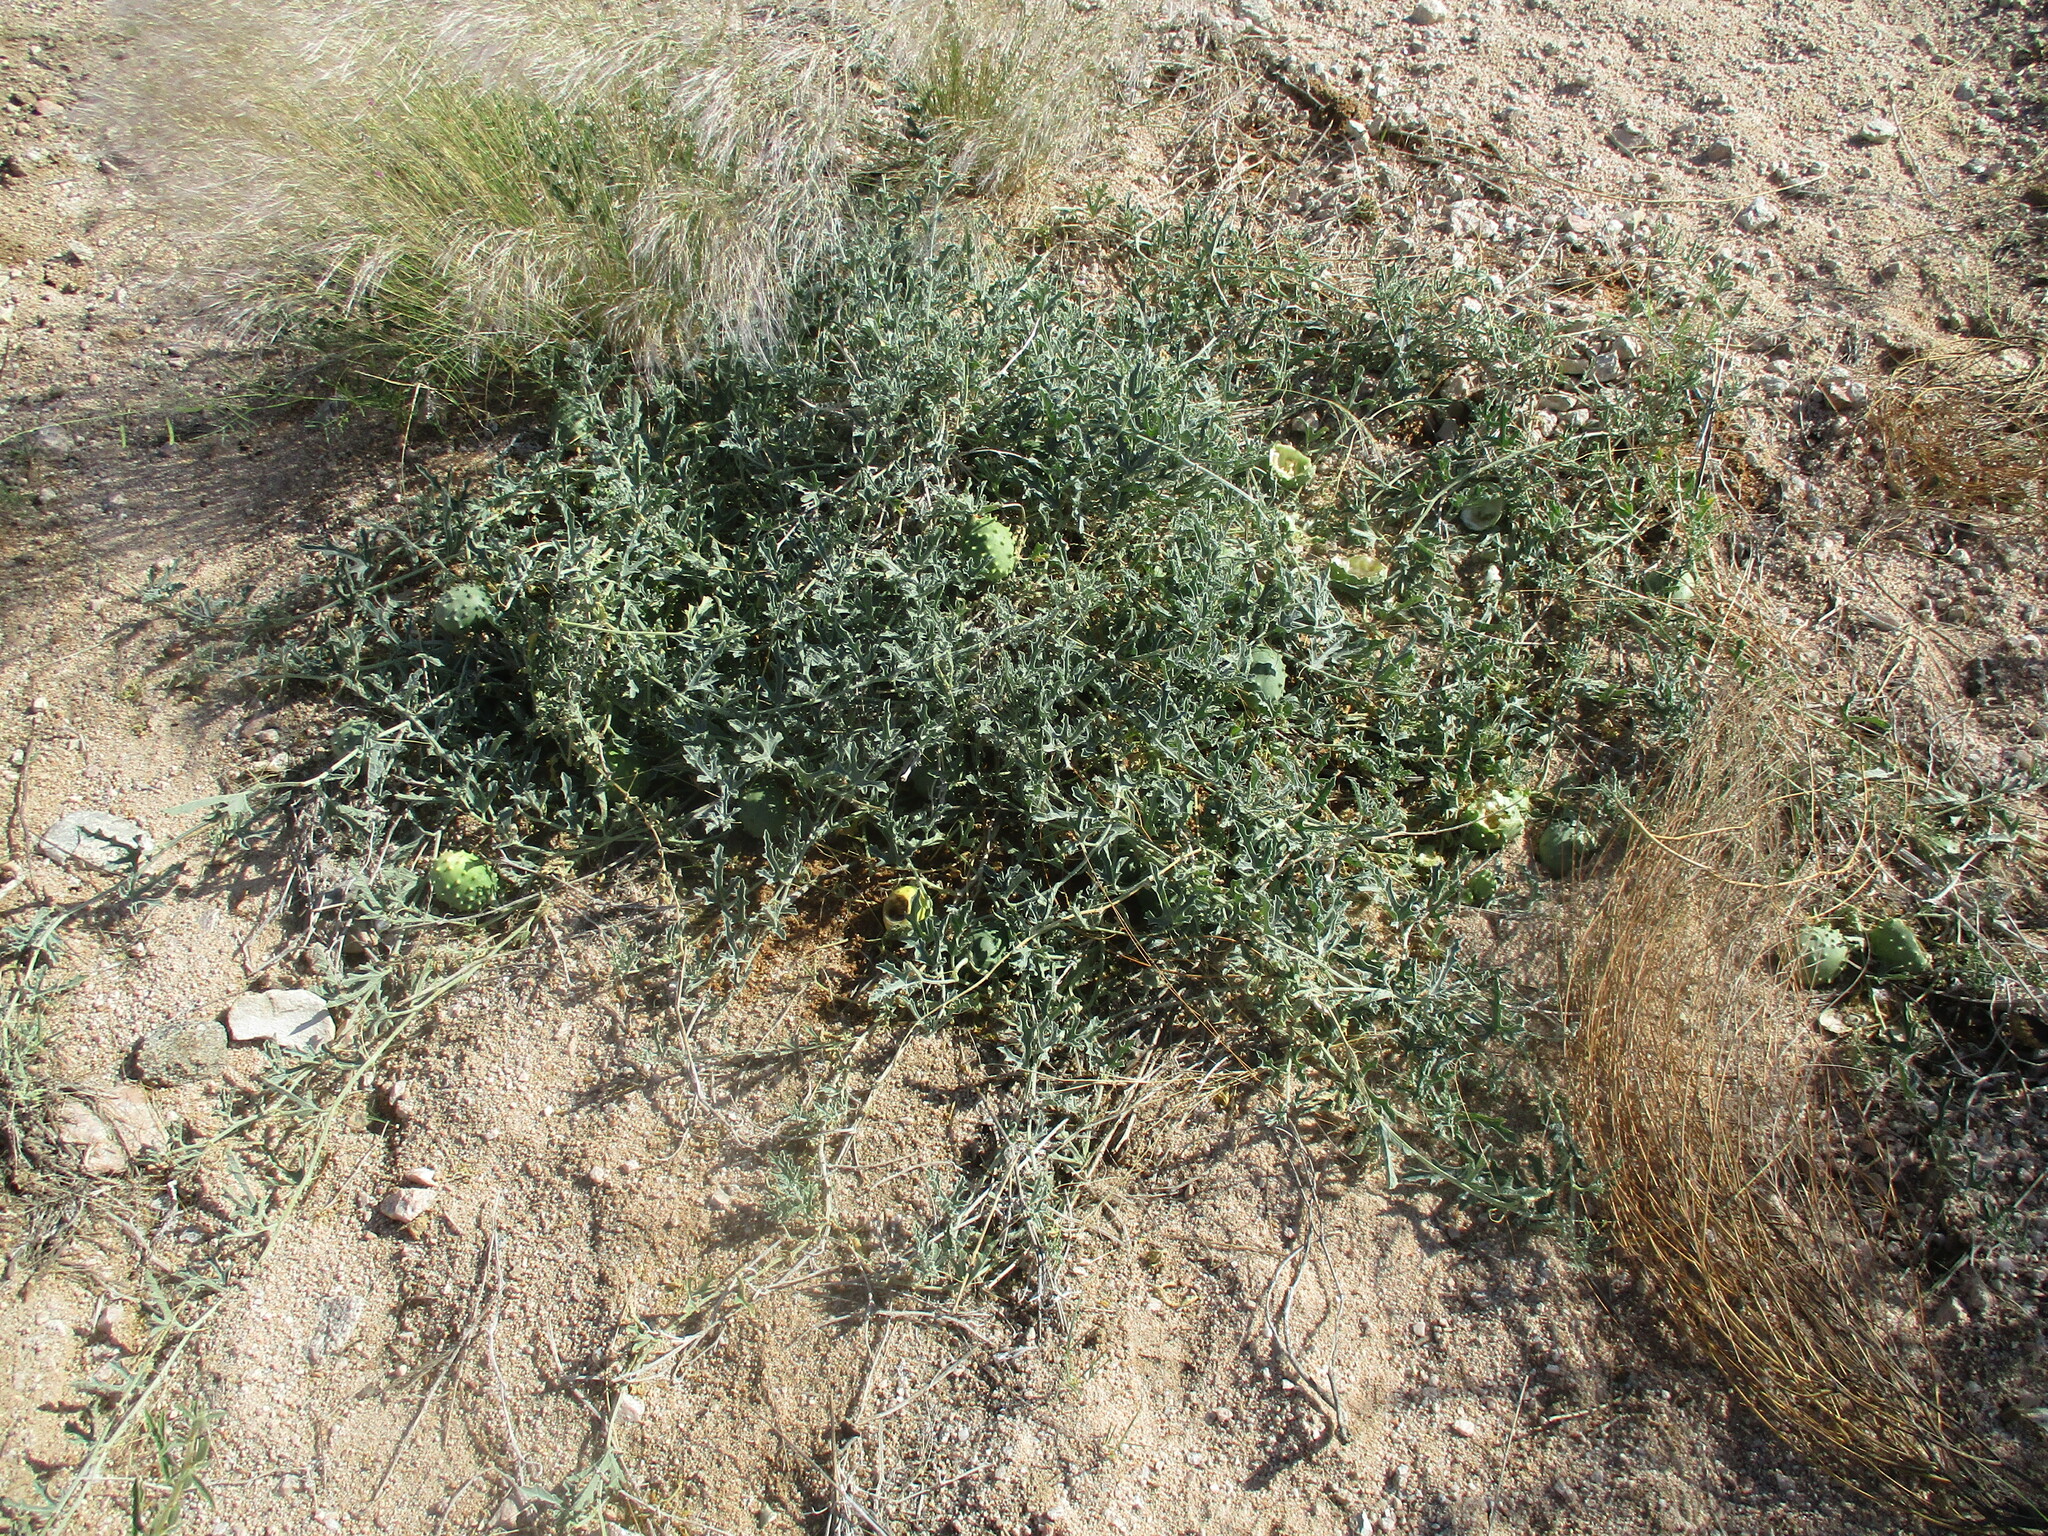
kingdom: Plantae
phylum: Tracheophyta
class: Magnoliopsida
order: Cucurbitales
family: Cucurbitaceae
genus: Citrullus
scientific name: Citrullus naudinianus
